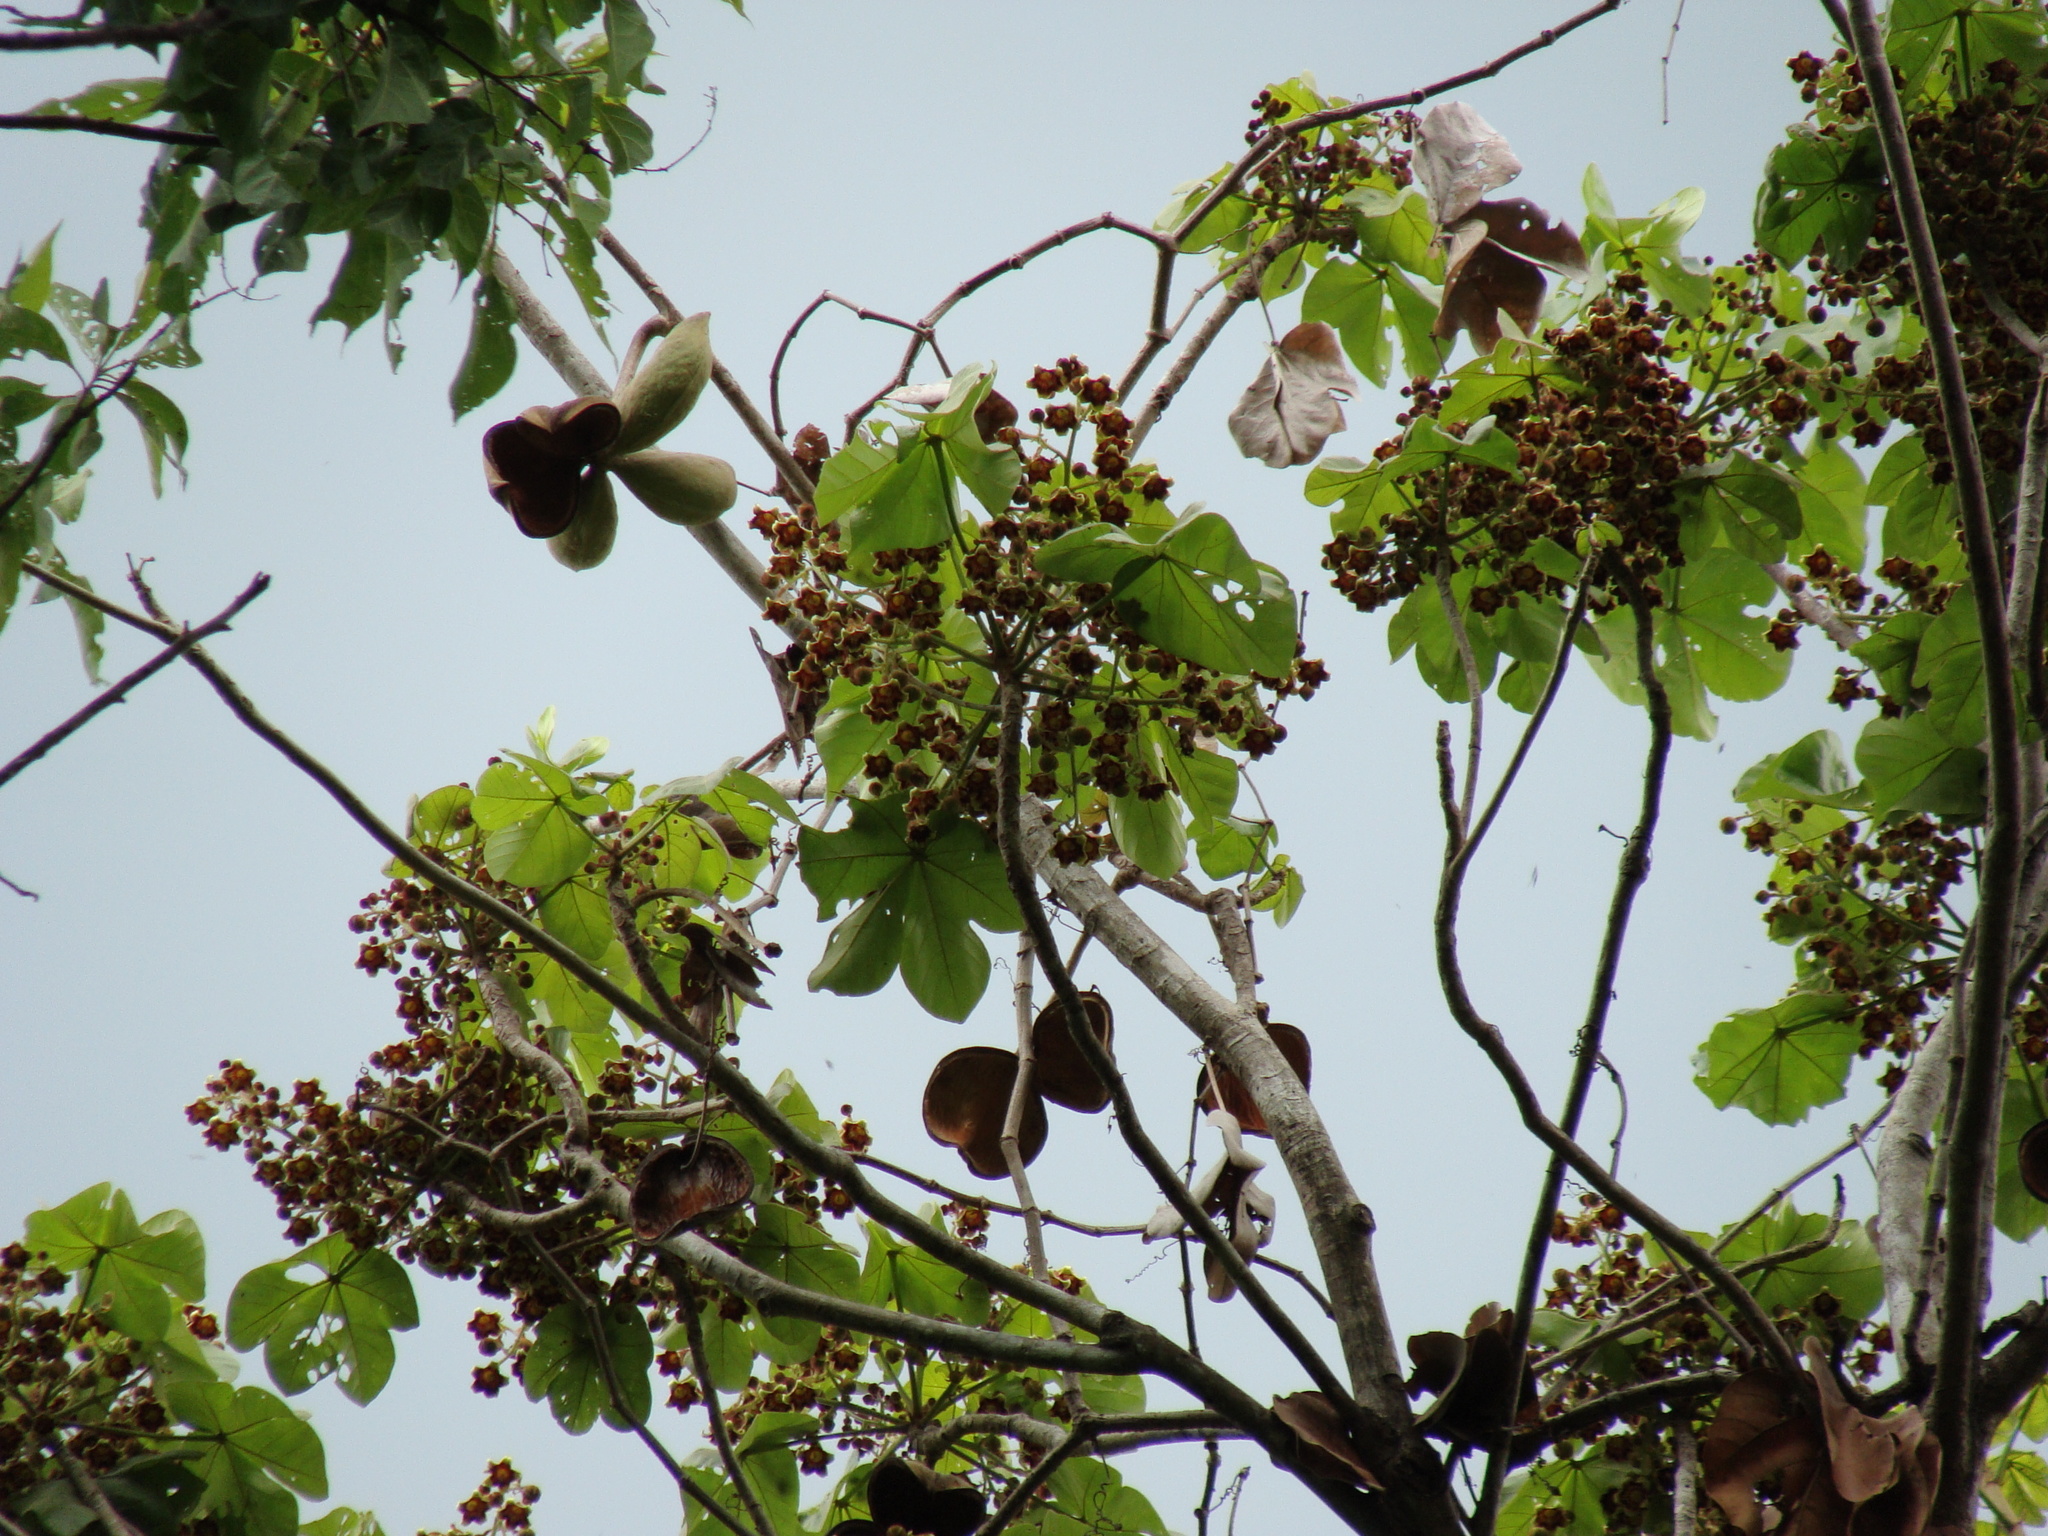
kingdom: Plantae
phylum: Tracheophyta
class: Magnoliopsida
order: Malvales
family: Malvaceae
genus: Sterculia
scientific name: Sterculia apetala
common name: Panama tree
